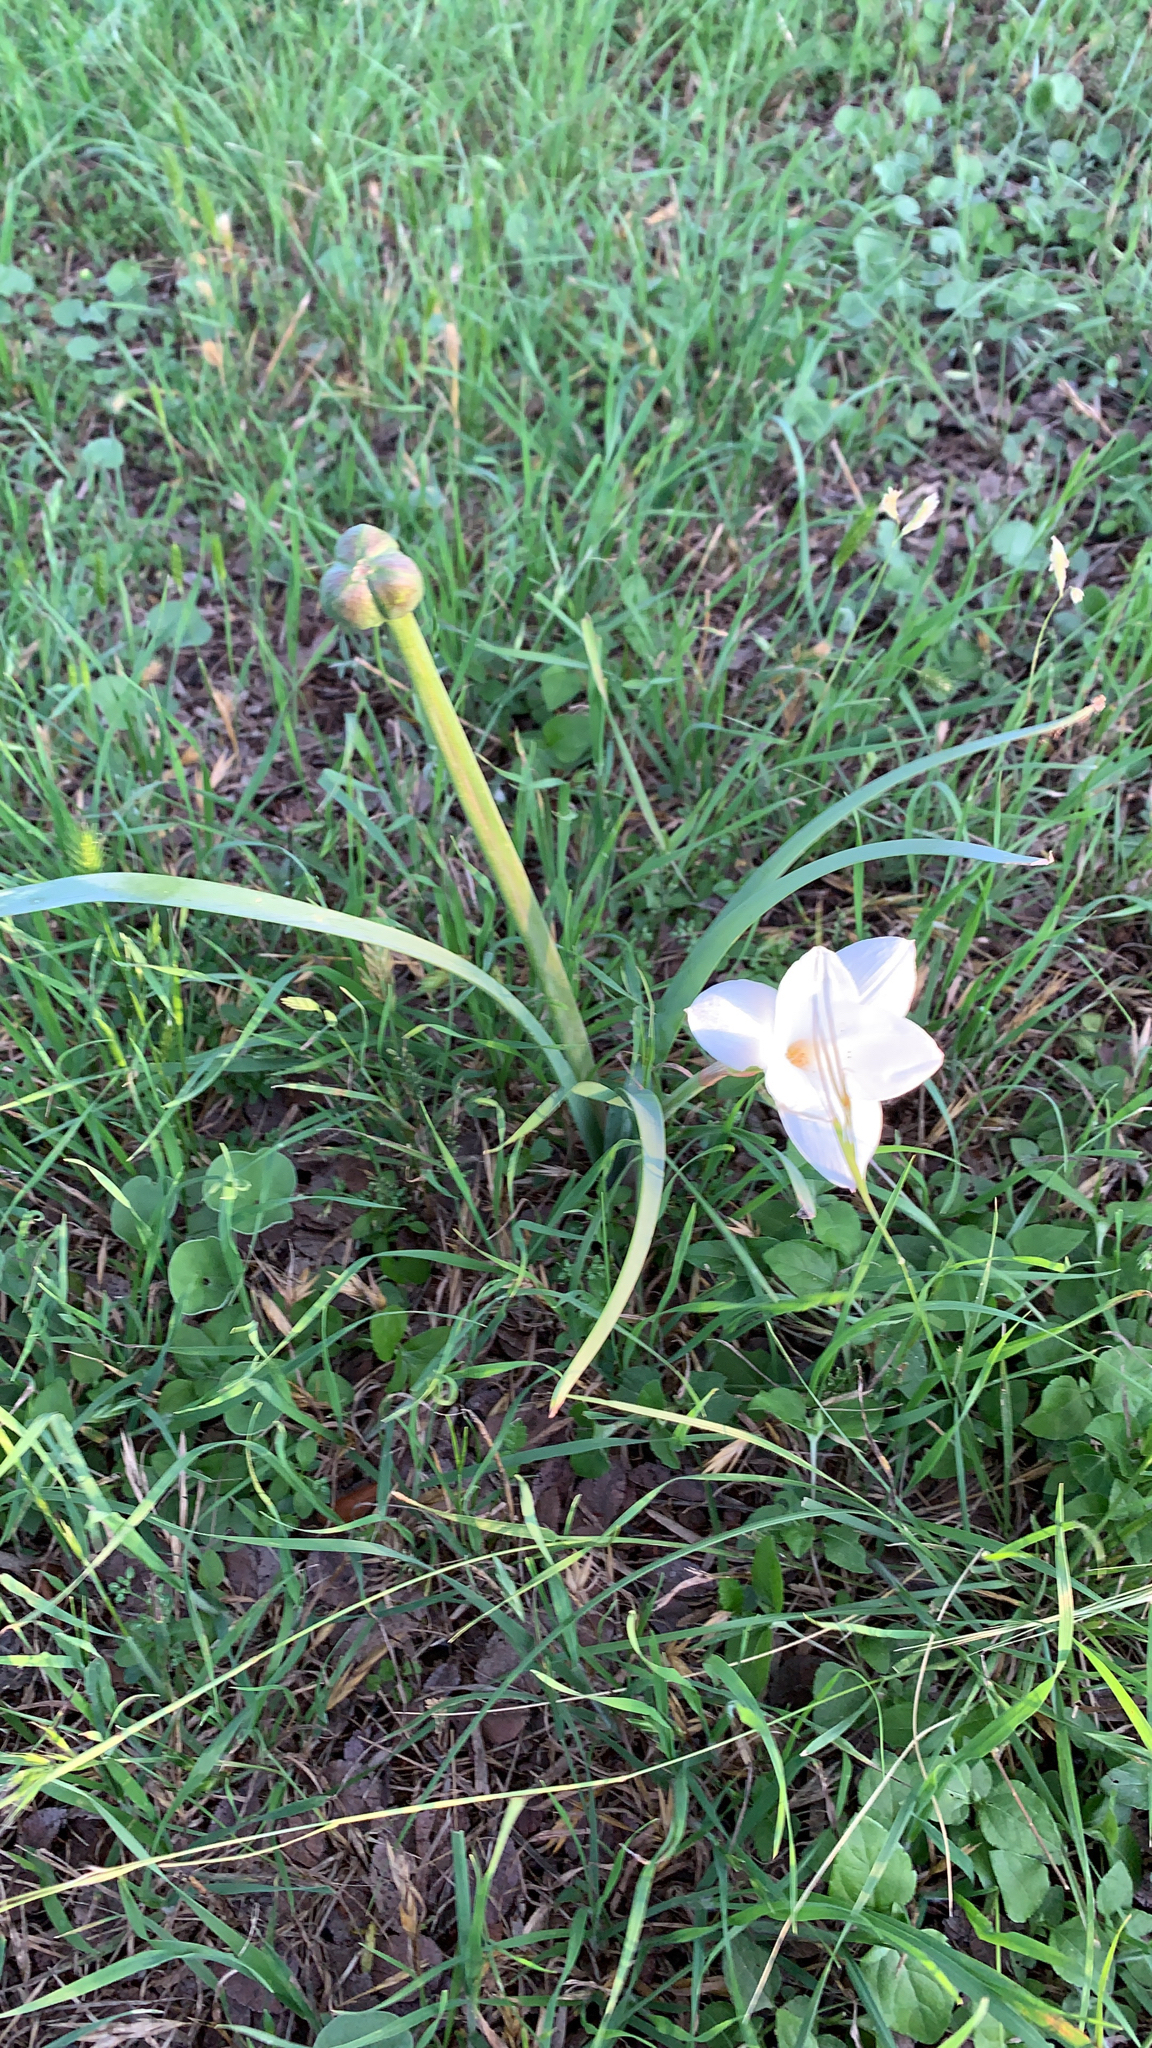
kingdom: Plantae
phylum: Tracheophyta
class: Liliopsida
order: Asparagales
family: Amaryllidaceae
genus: Zephyranthes
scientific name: Zephyranthes drummondii
